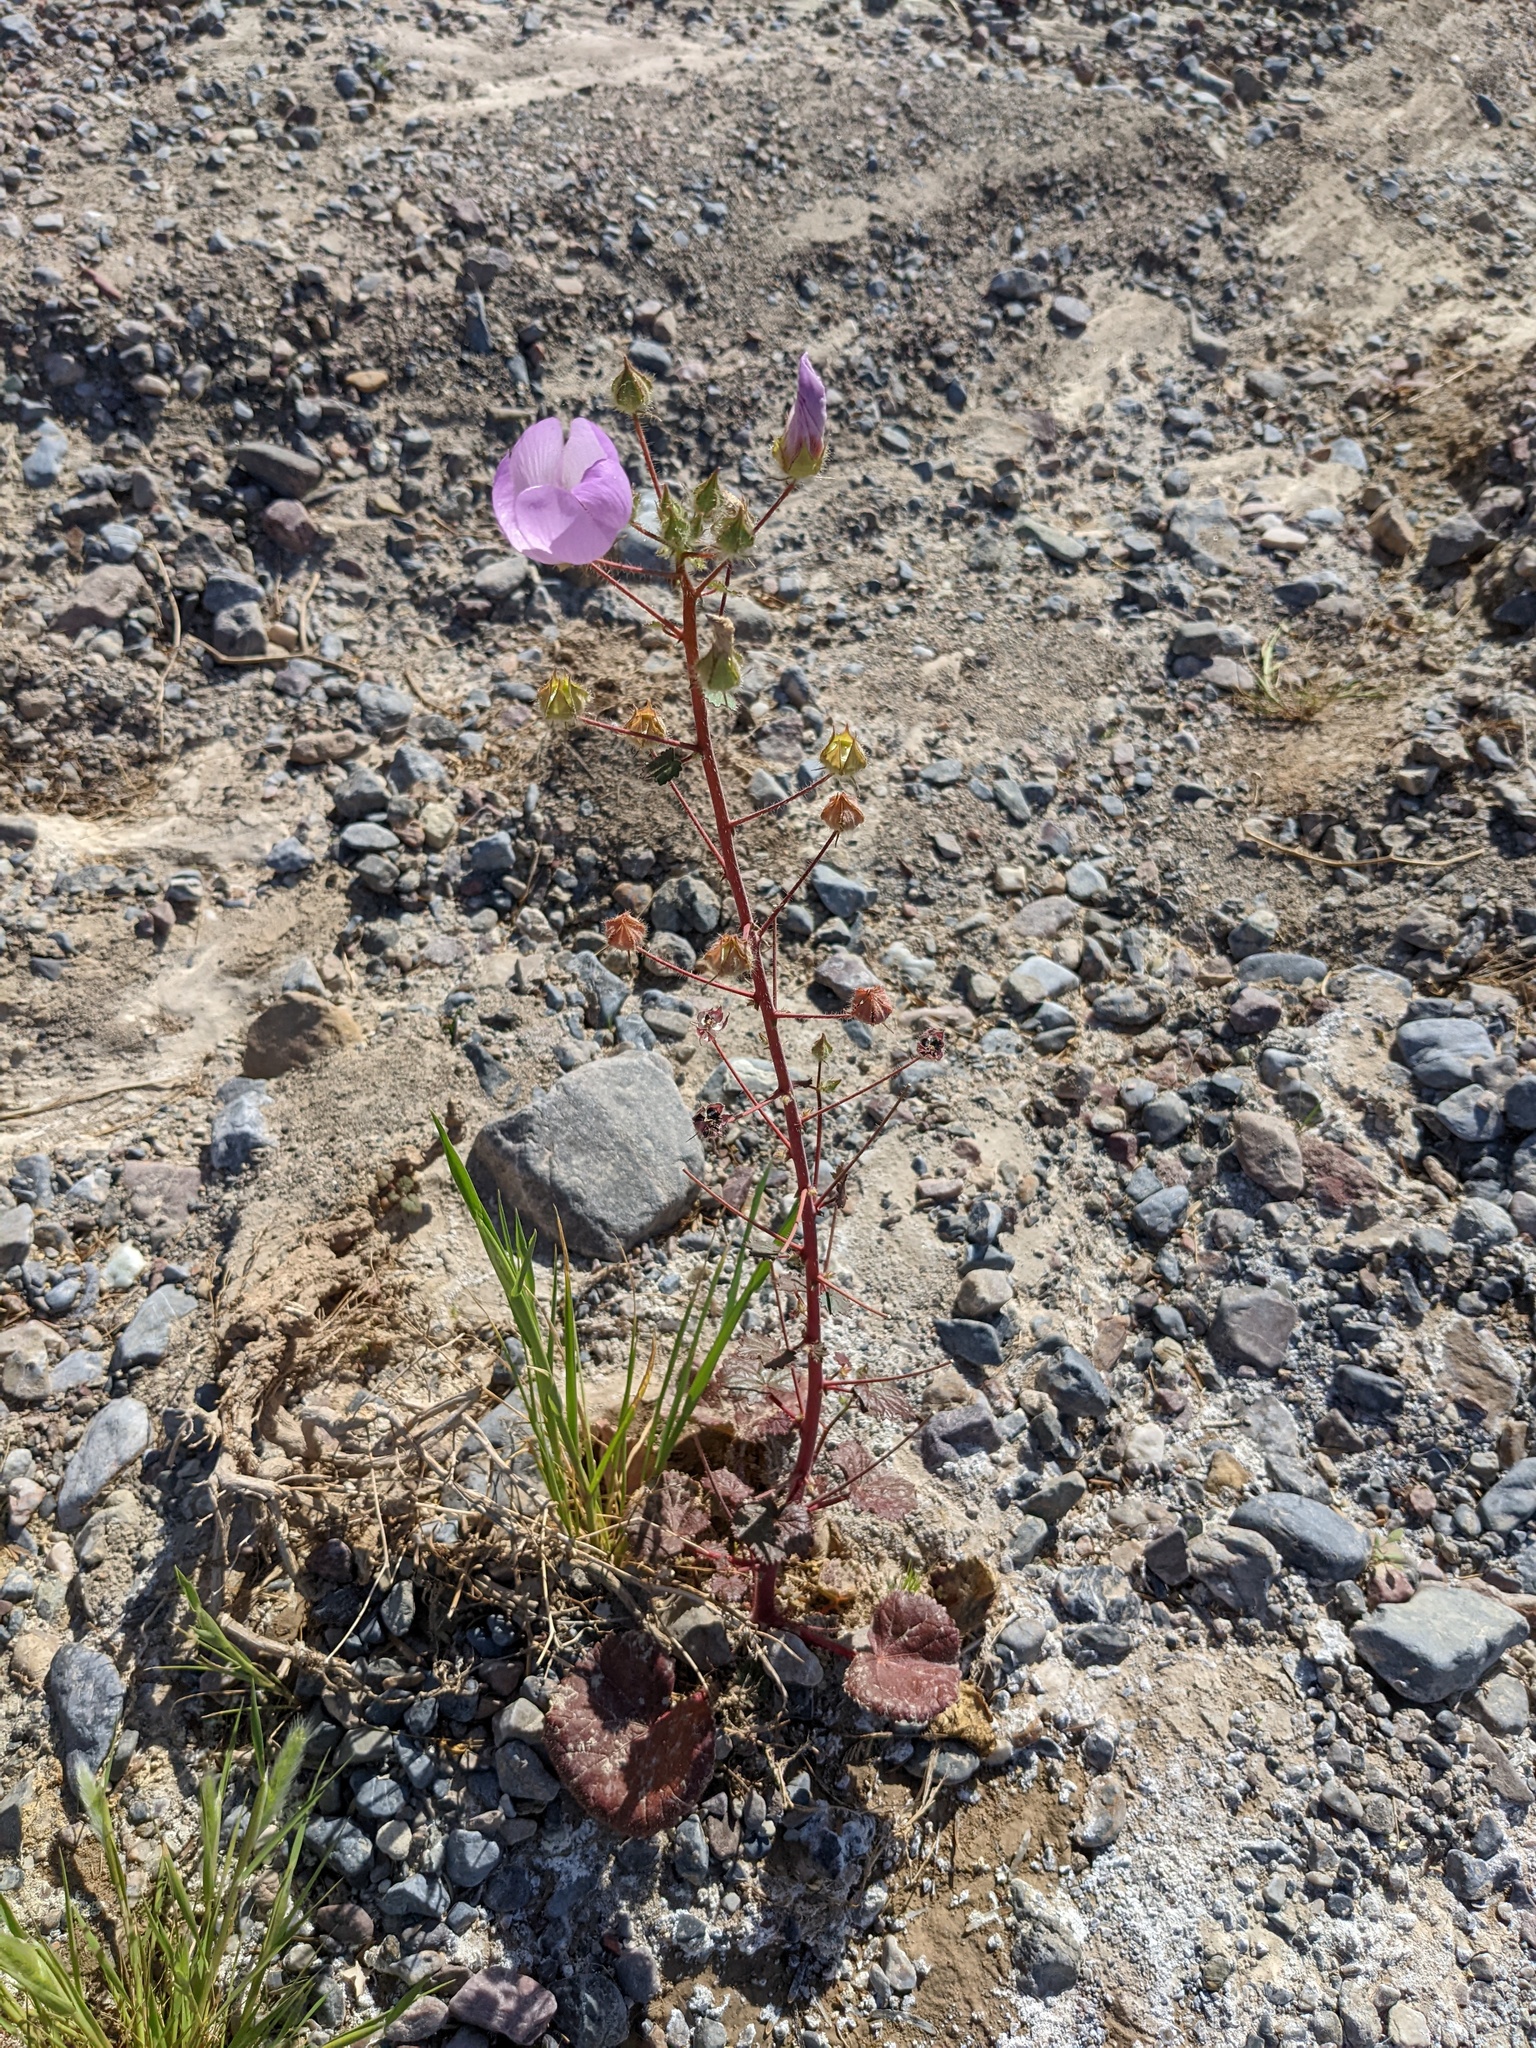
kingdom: Plantae
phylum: Tracheophyta
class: Magnoliopsida
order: Malvales
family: Malvaceae
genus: Eremalche
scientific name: Eremalche rotundifolia
